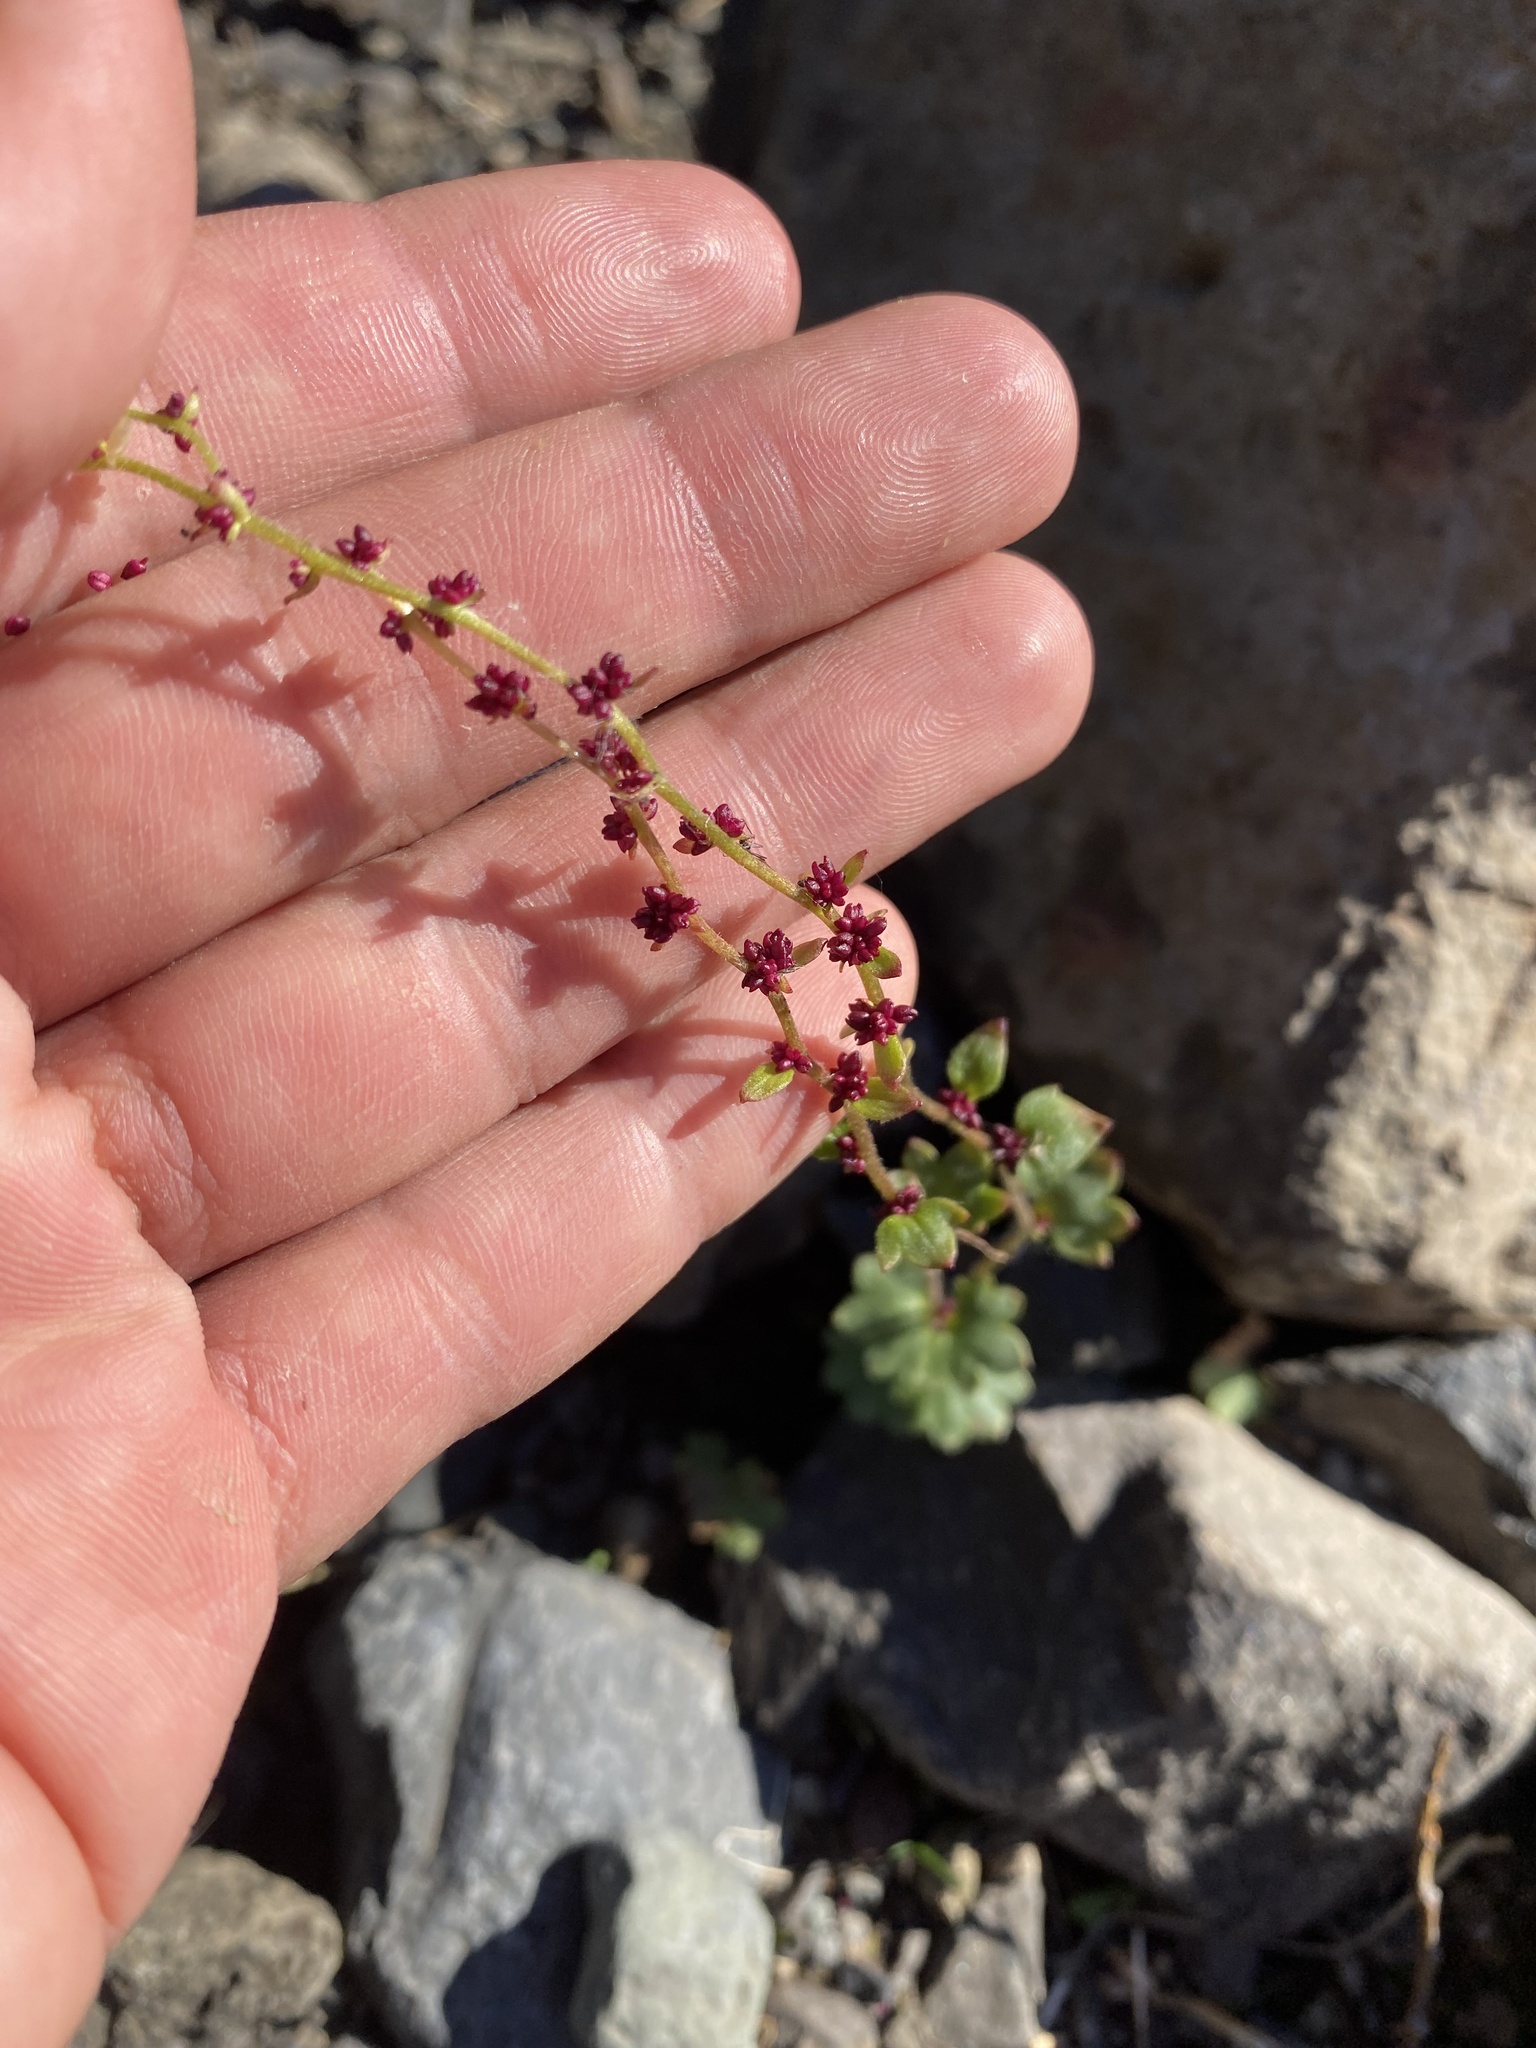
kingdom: Plantae
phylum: Tracheophyta
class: Magnoliopsida
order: Saxifragales
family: Saxifragaceae
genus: Saxifraga
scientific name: Saxifraga cernua
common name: Drooping saxifrage
